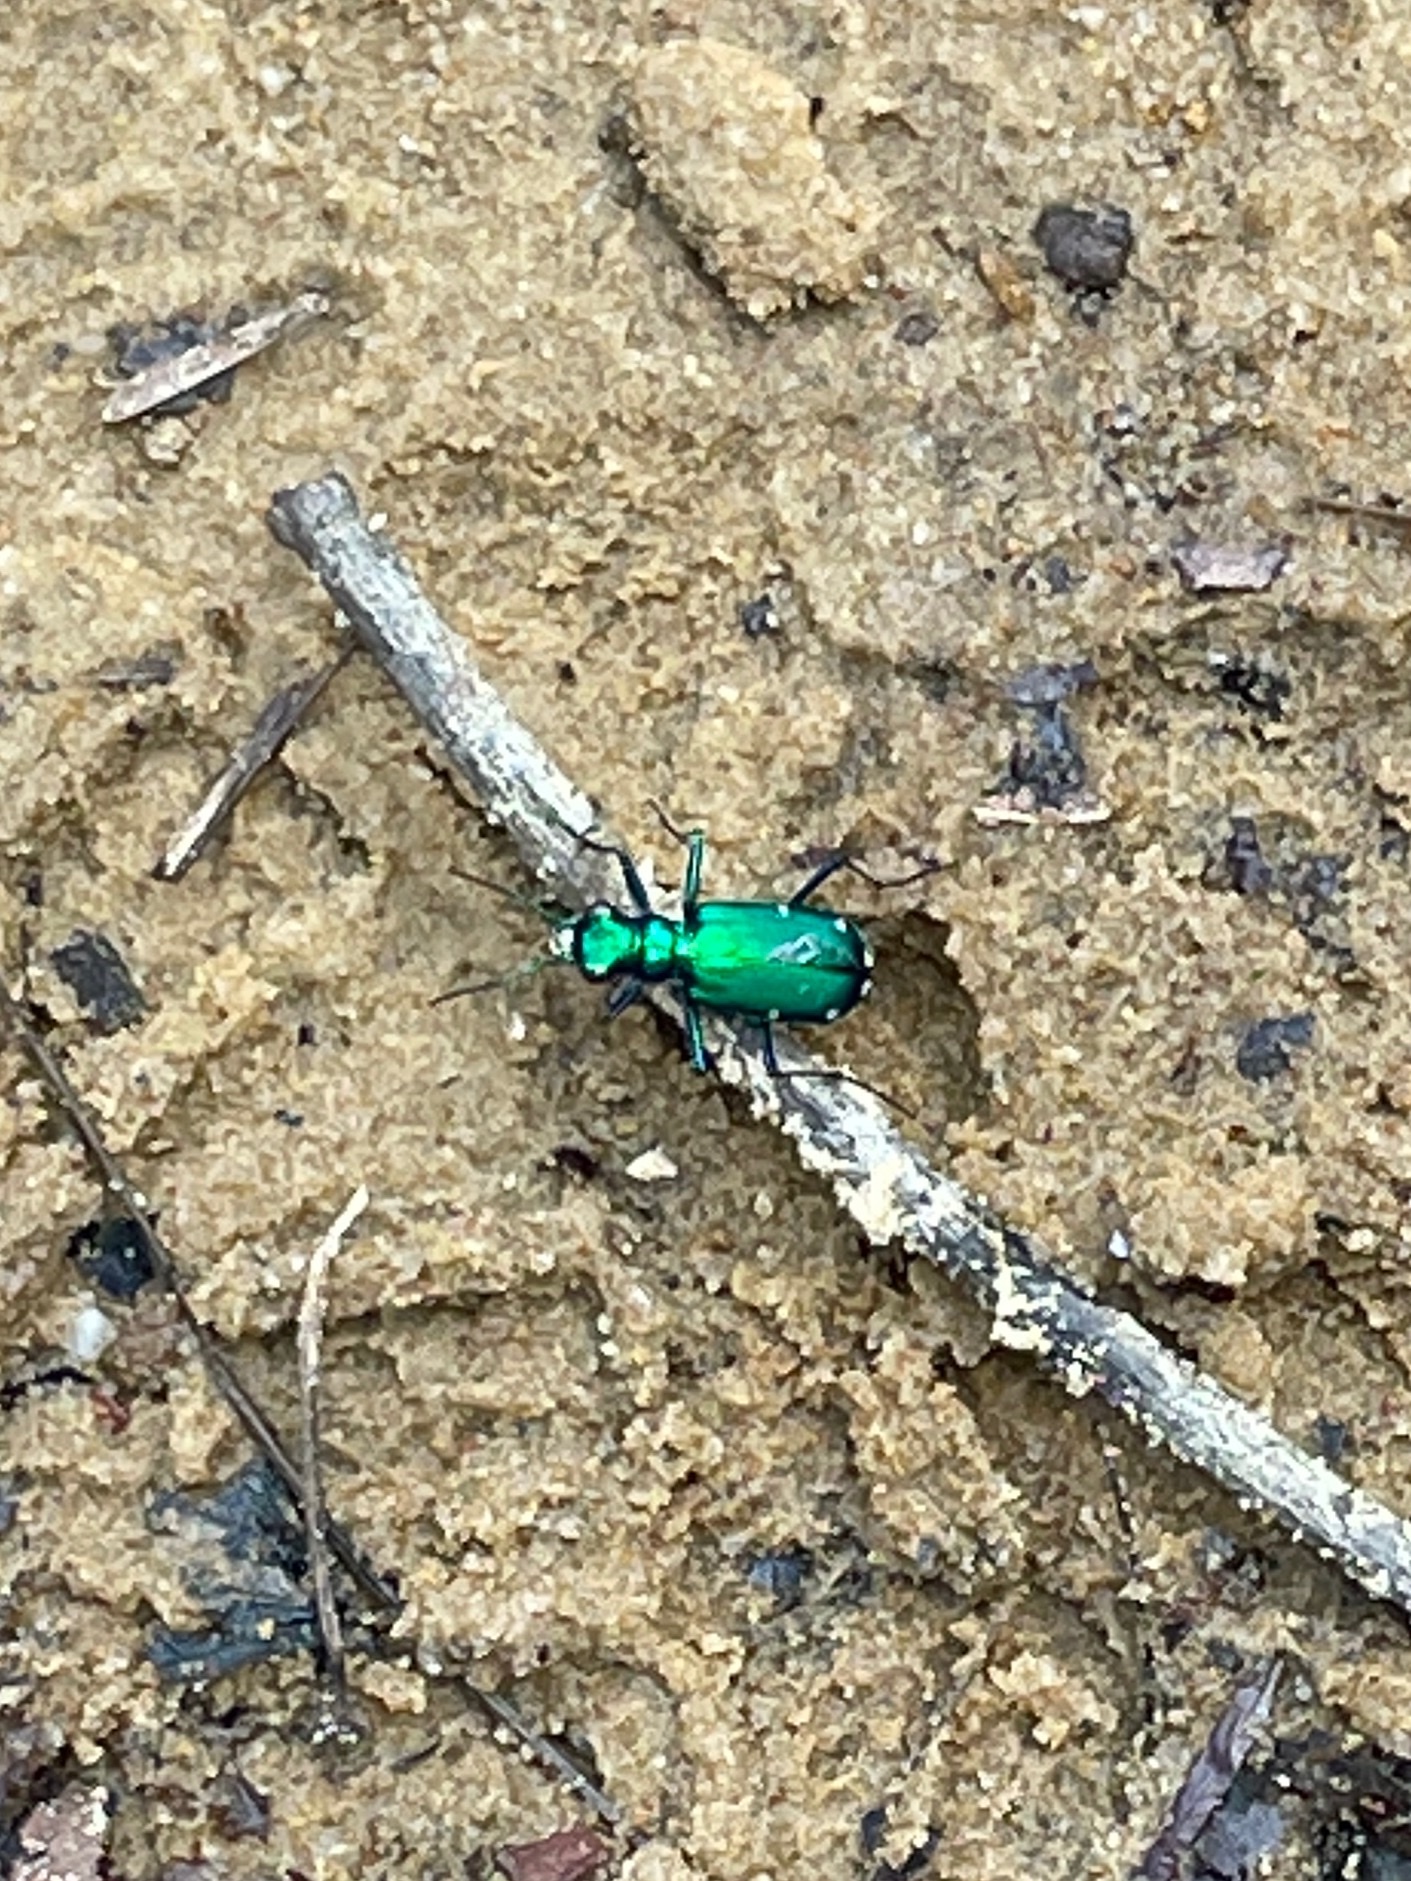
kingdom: Animalia
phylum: Arthropoda
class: Insecta
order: Coleoptera
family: Carabidae
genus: Cicindela
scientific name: Cicindela sexguttata
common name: Six-spotted tiger beetle
